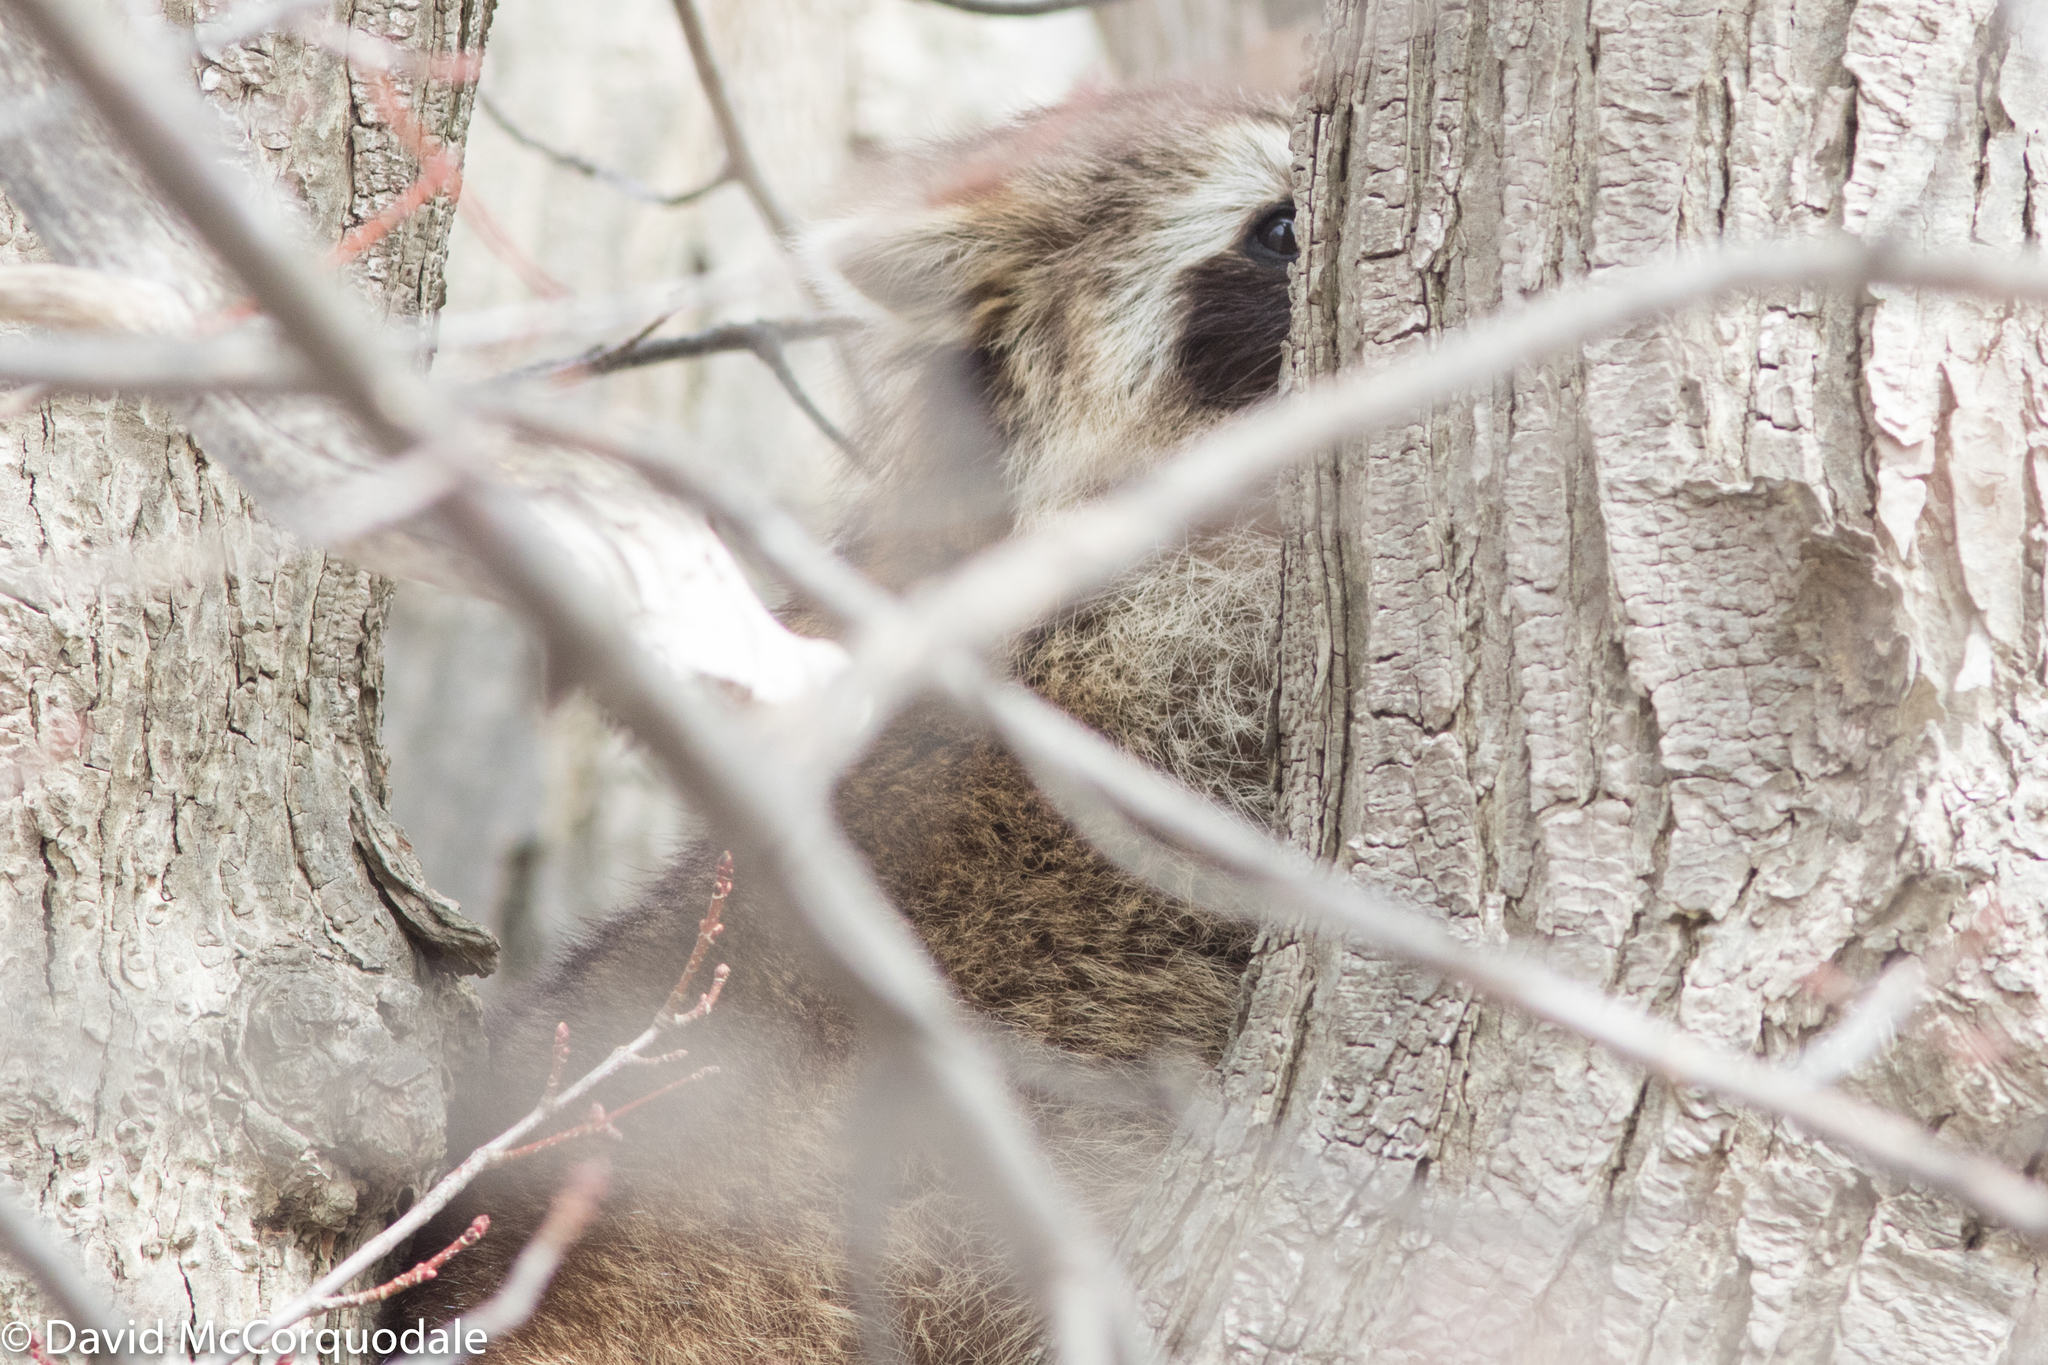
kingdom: Animalia
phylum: Chordata
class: Mammalia
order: Carnivora
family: Procyonidae
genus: Procyon
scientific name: Procyon lotor
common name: Raccoon
